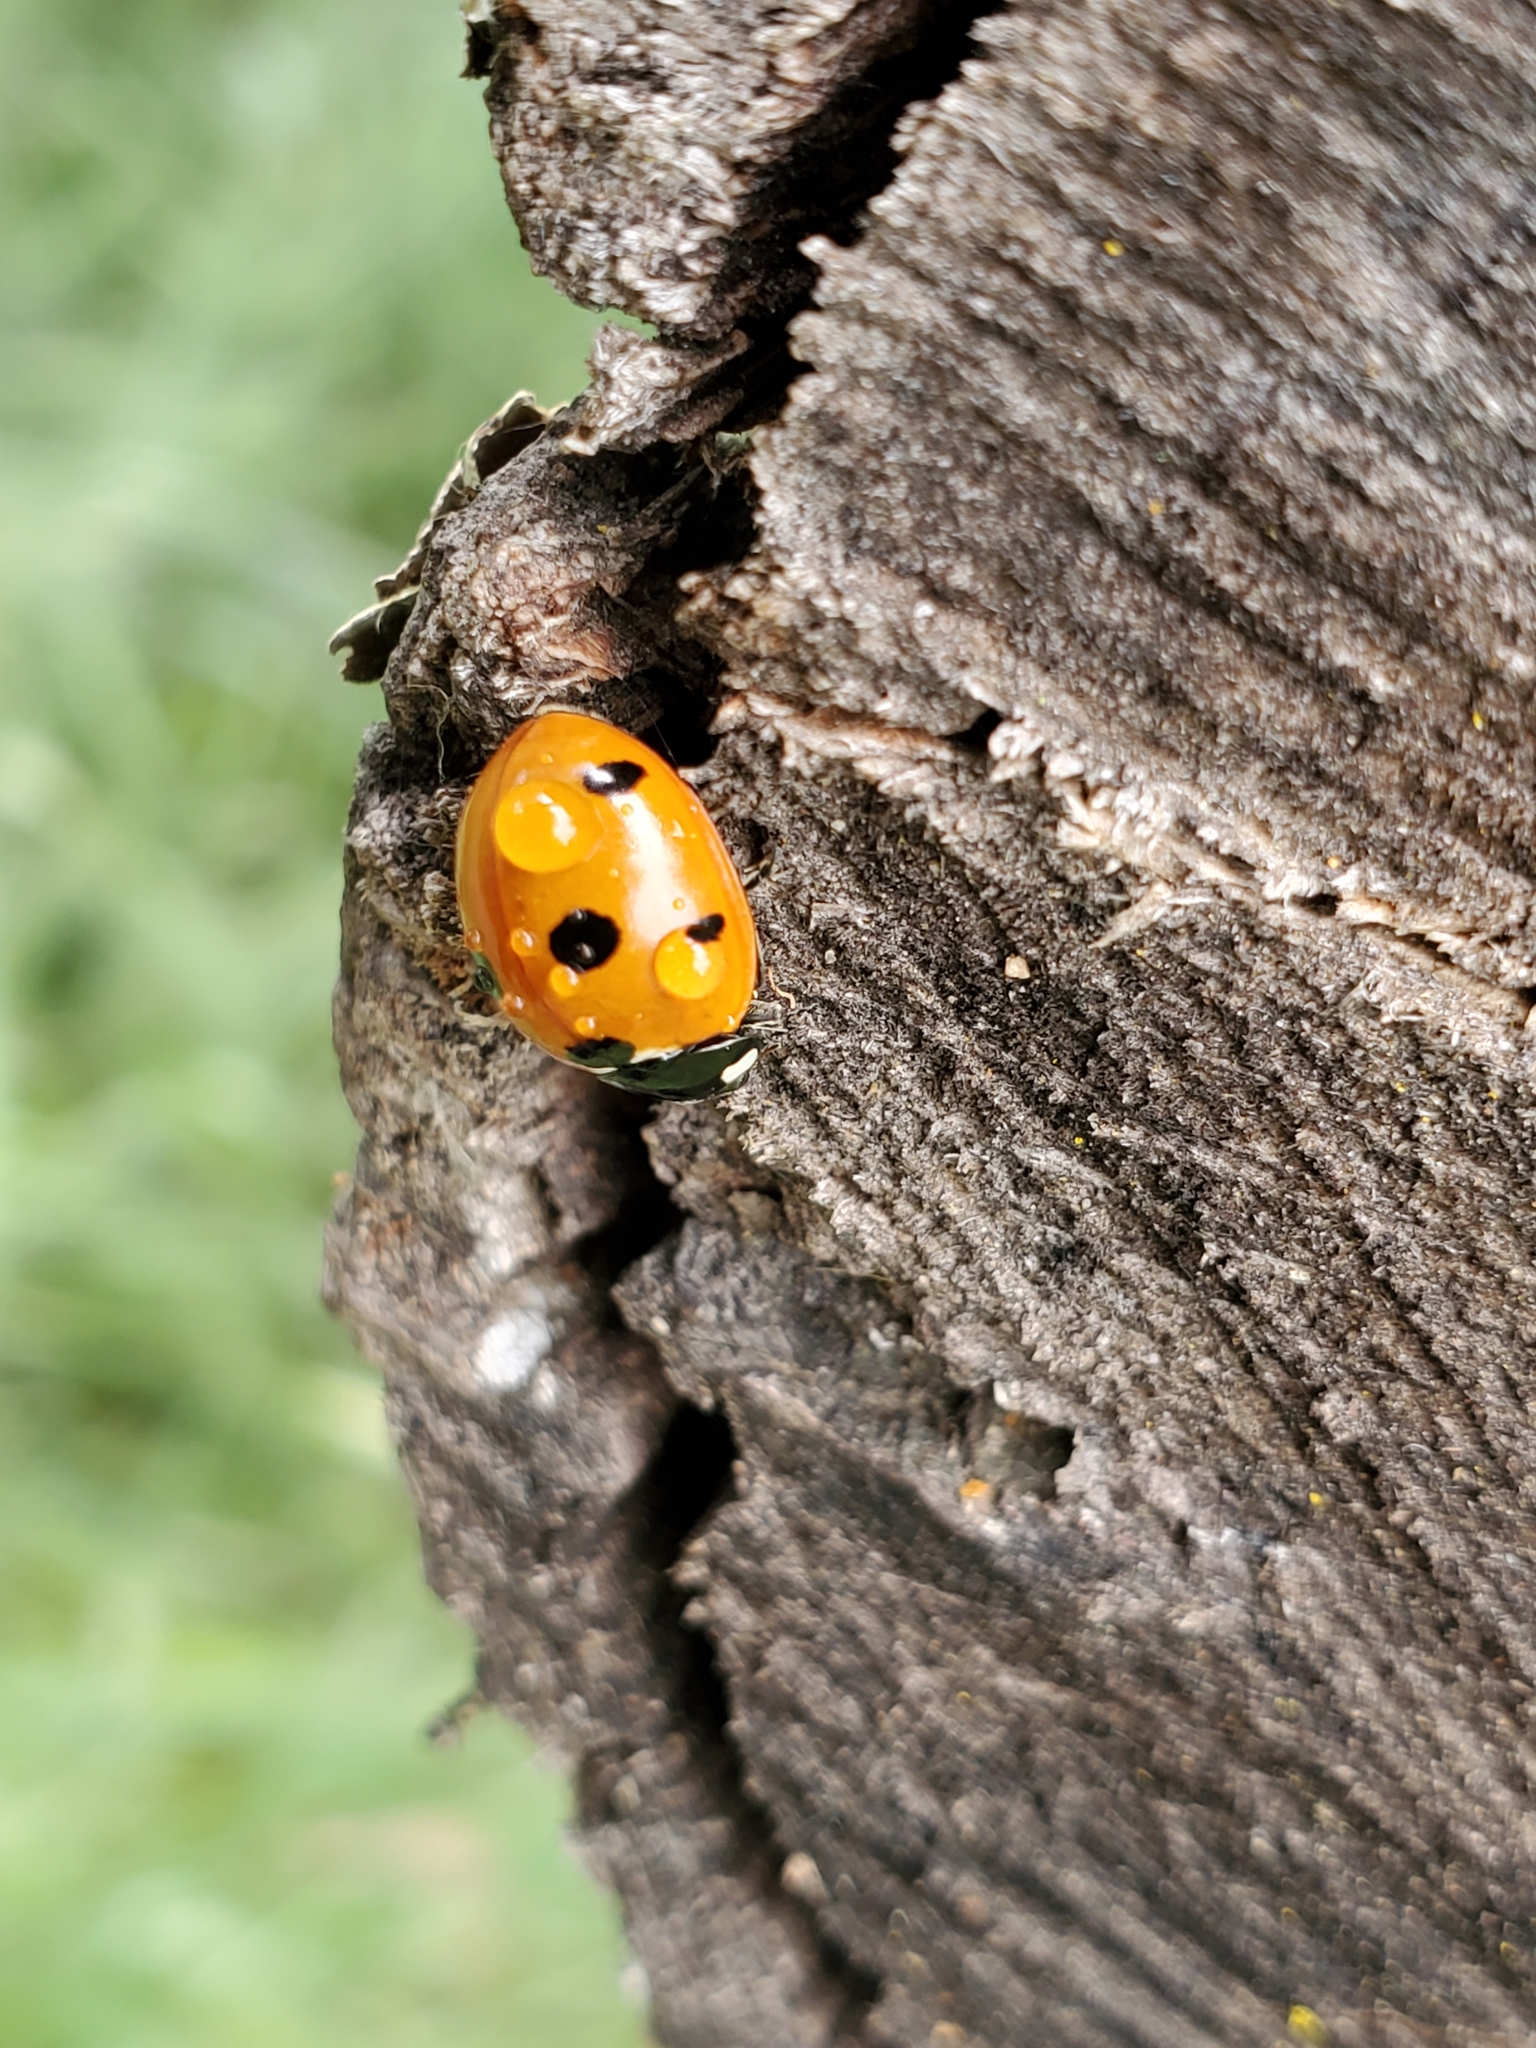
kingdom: Animalia
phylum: Arthropoda
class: Insecta
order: Coleoptera
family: Coccinellidae
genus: Coccinella
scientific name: Coccinella septempunctata
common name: Sevenspotted lady beetle
